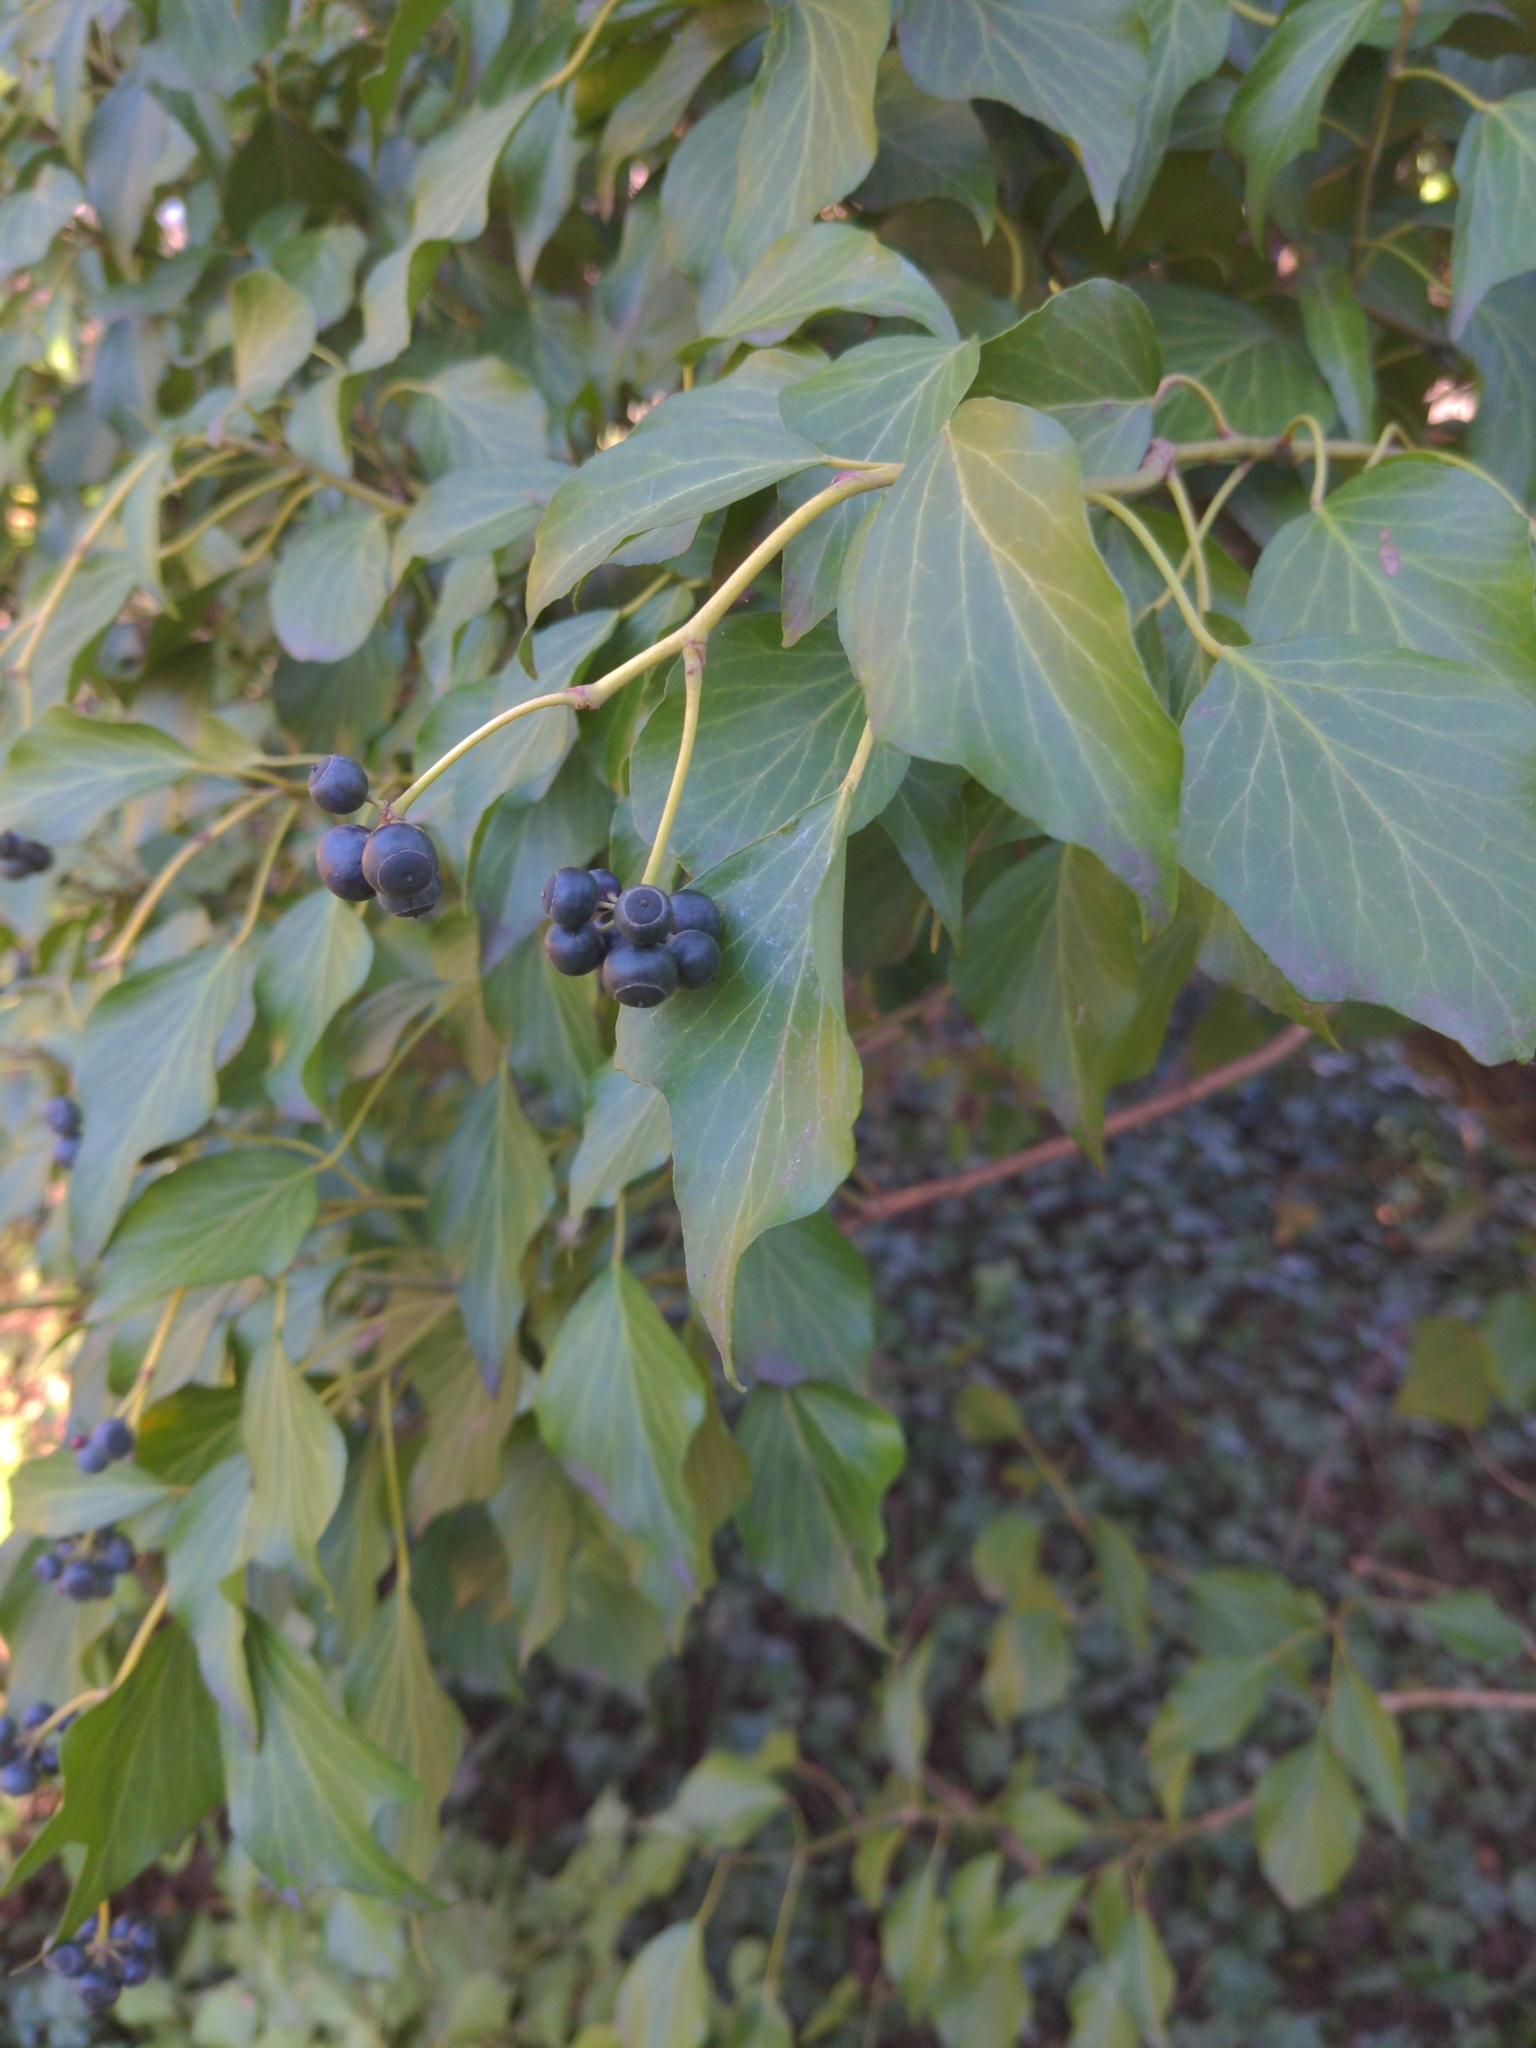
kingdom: Plantae
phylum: Tracheophyta
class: Magnoliopsida
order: Apiales
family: Araliaceae
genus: Hedera
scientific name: Hedera helix
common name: Ivy
